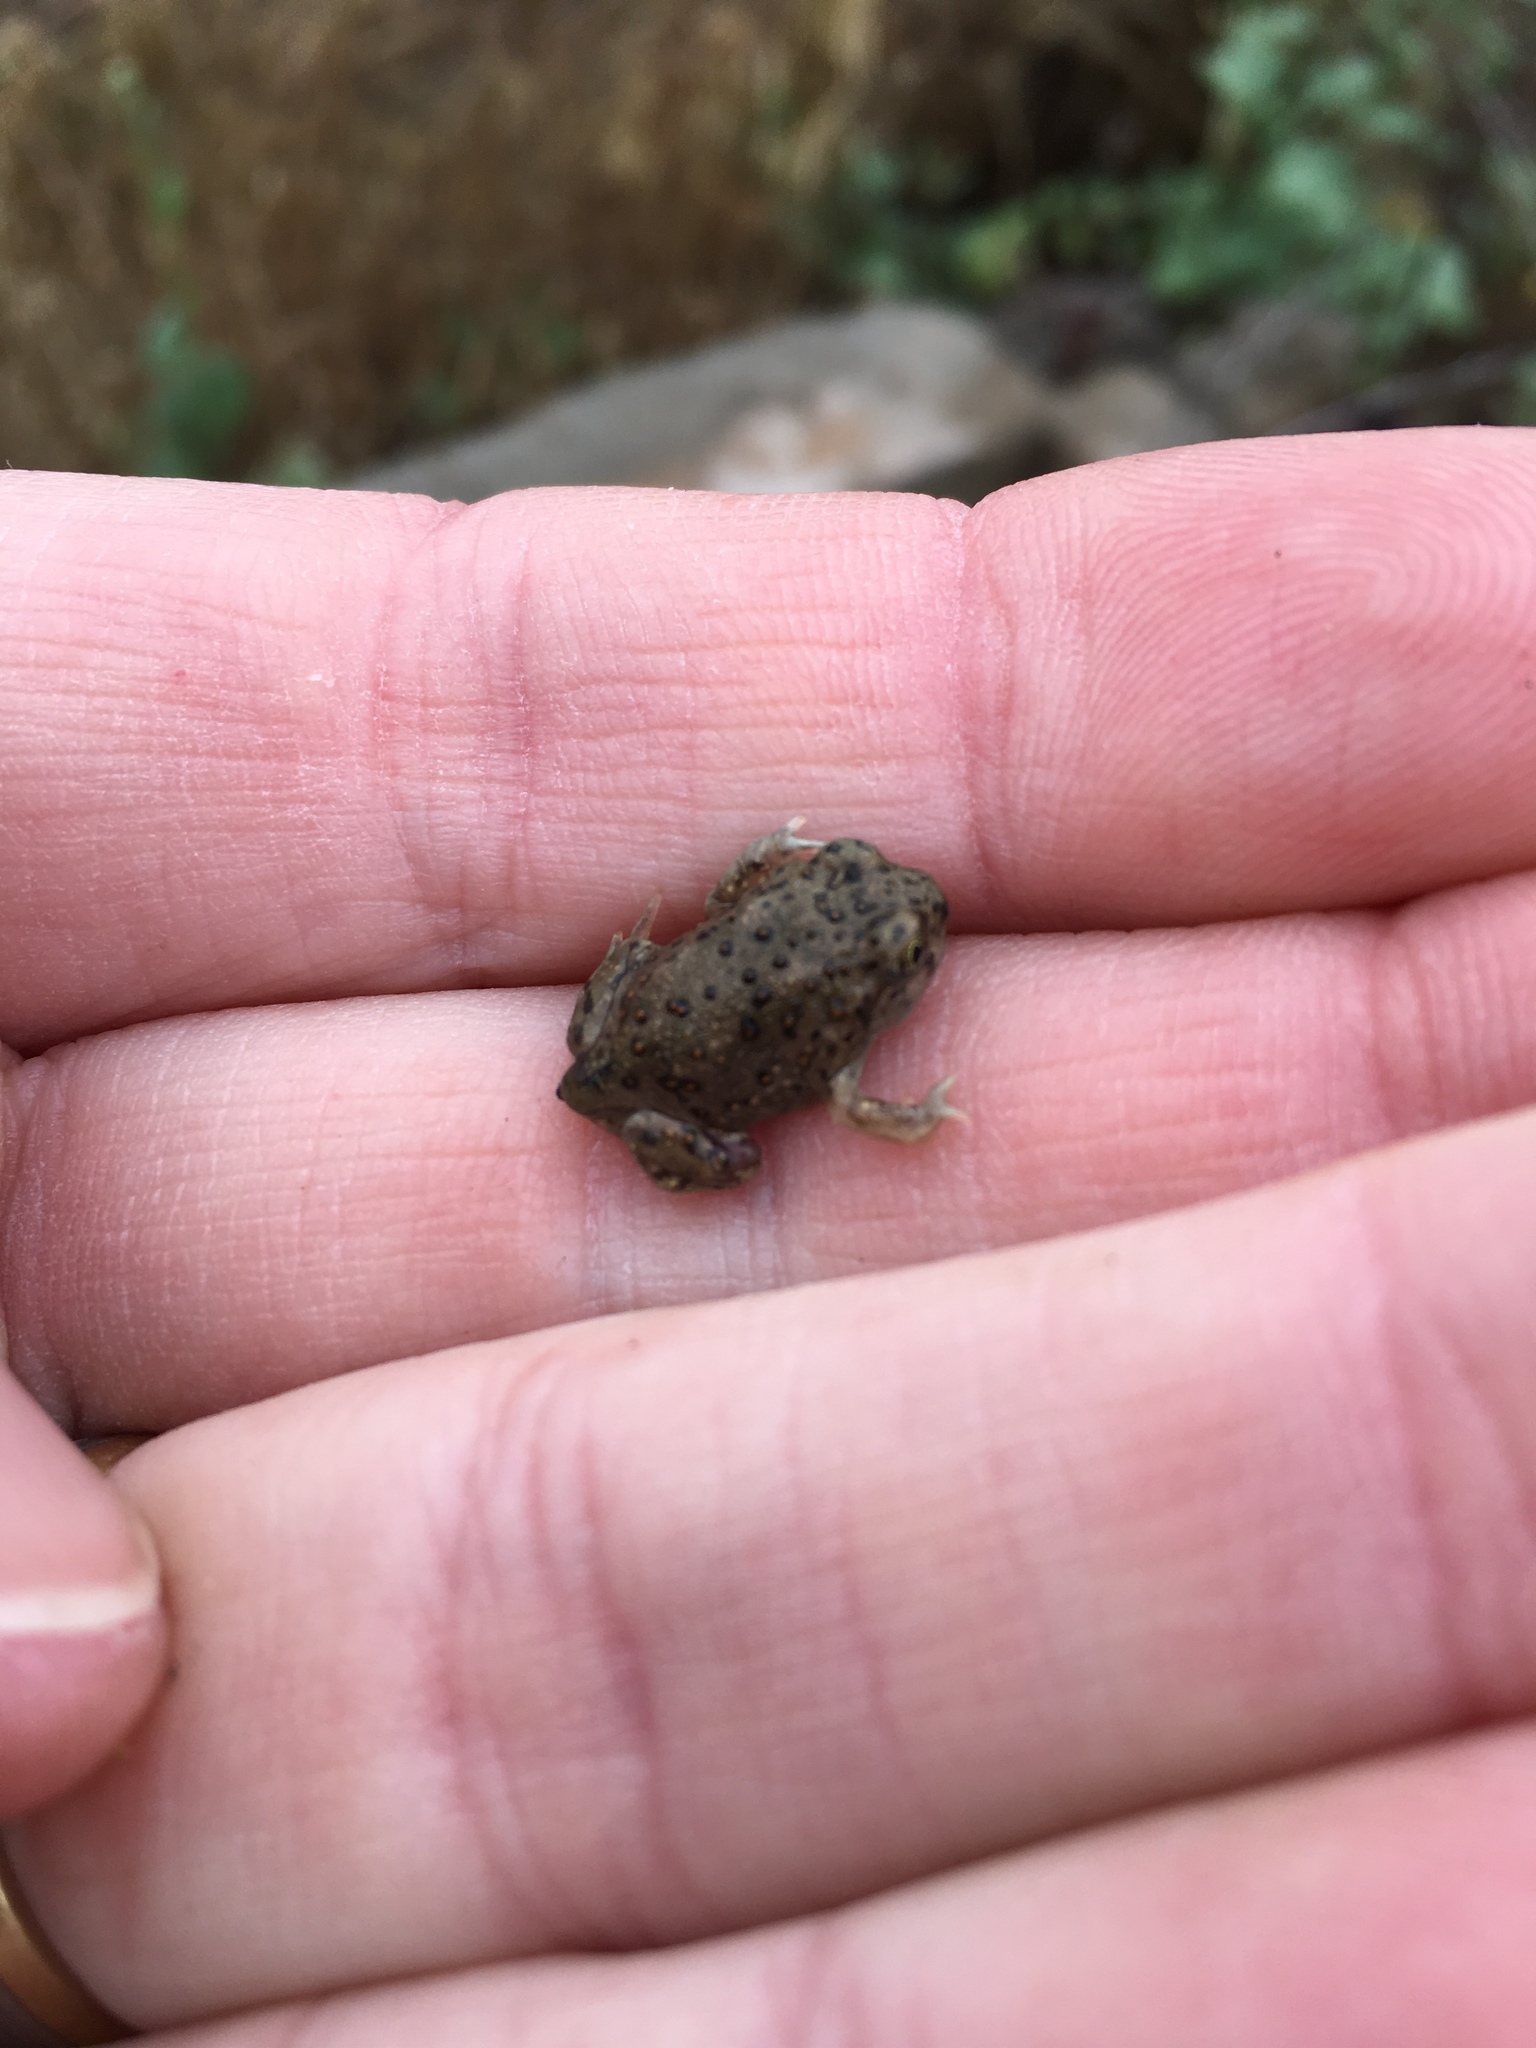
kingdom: Animalia
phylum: Chordata
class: Amphibia
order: Anura
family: Scaphiopodidae
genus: Spea
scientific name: Spea hammondii
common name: Western spadefoot toad
